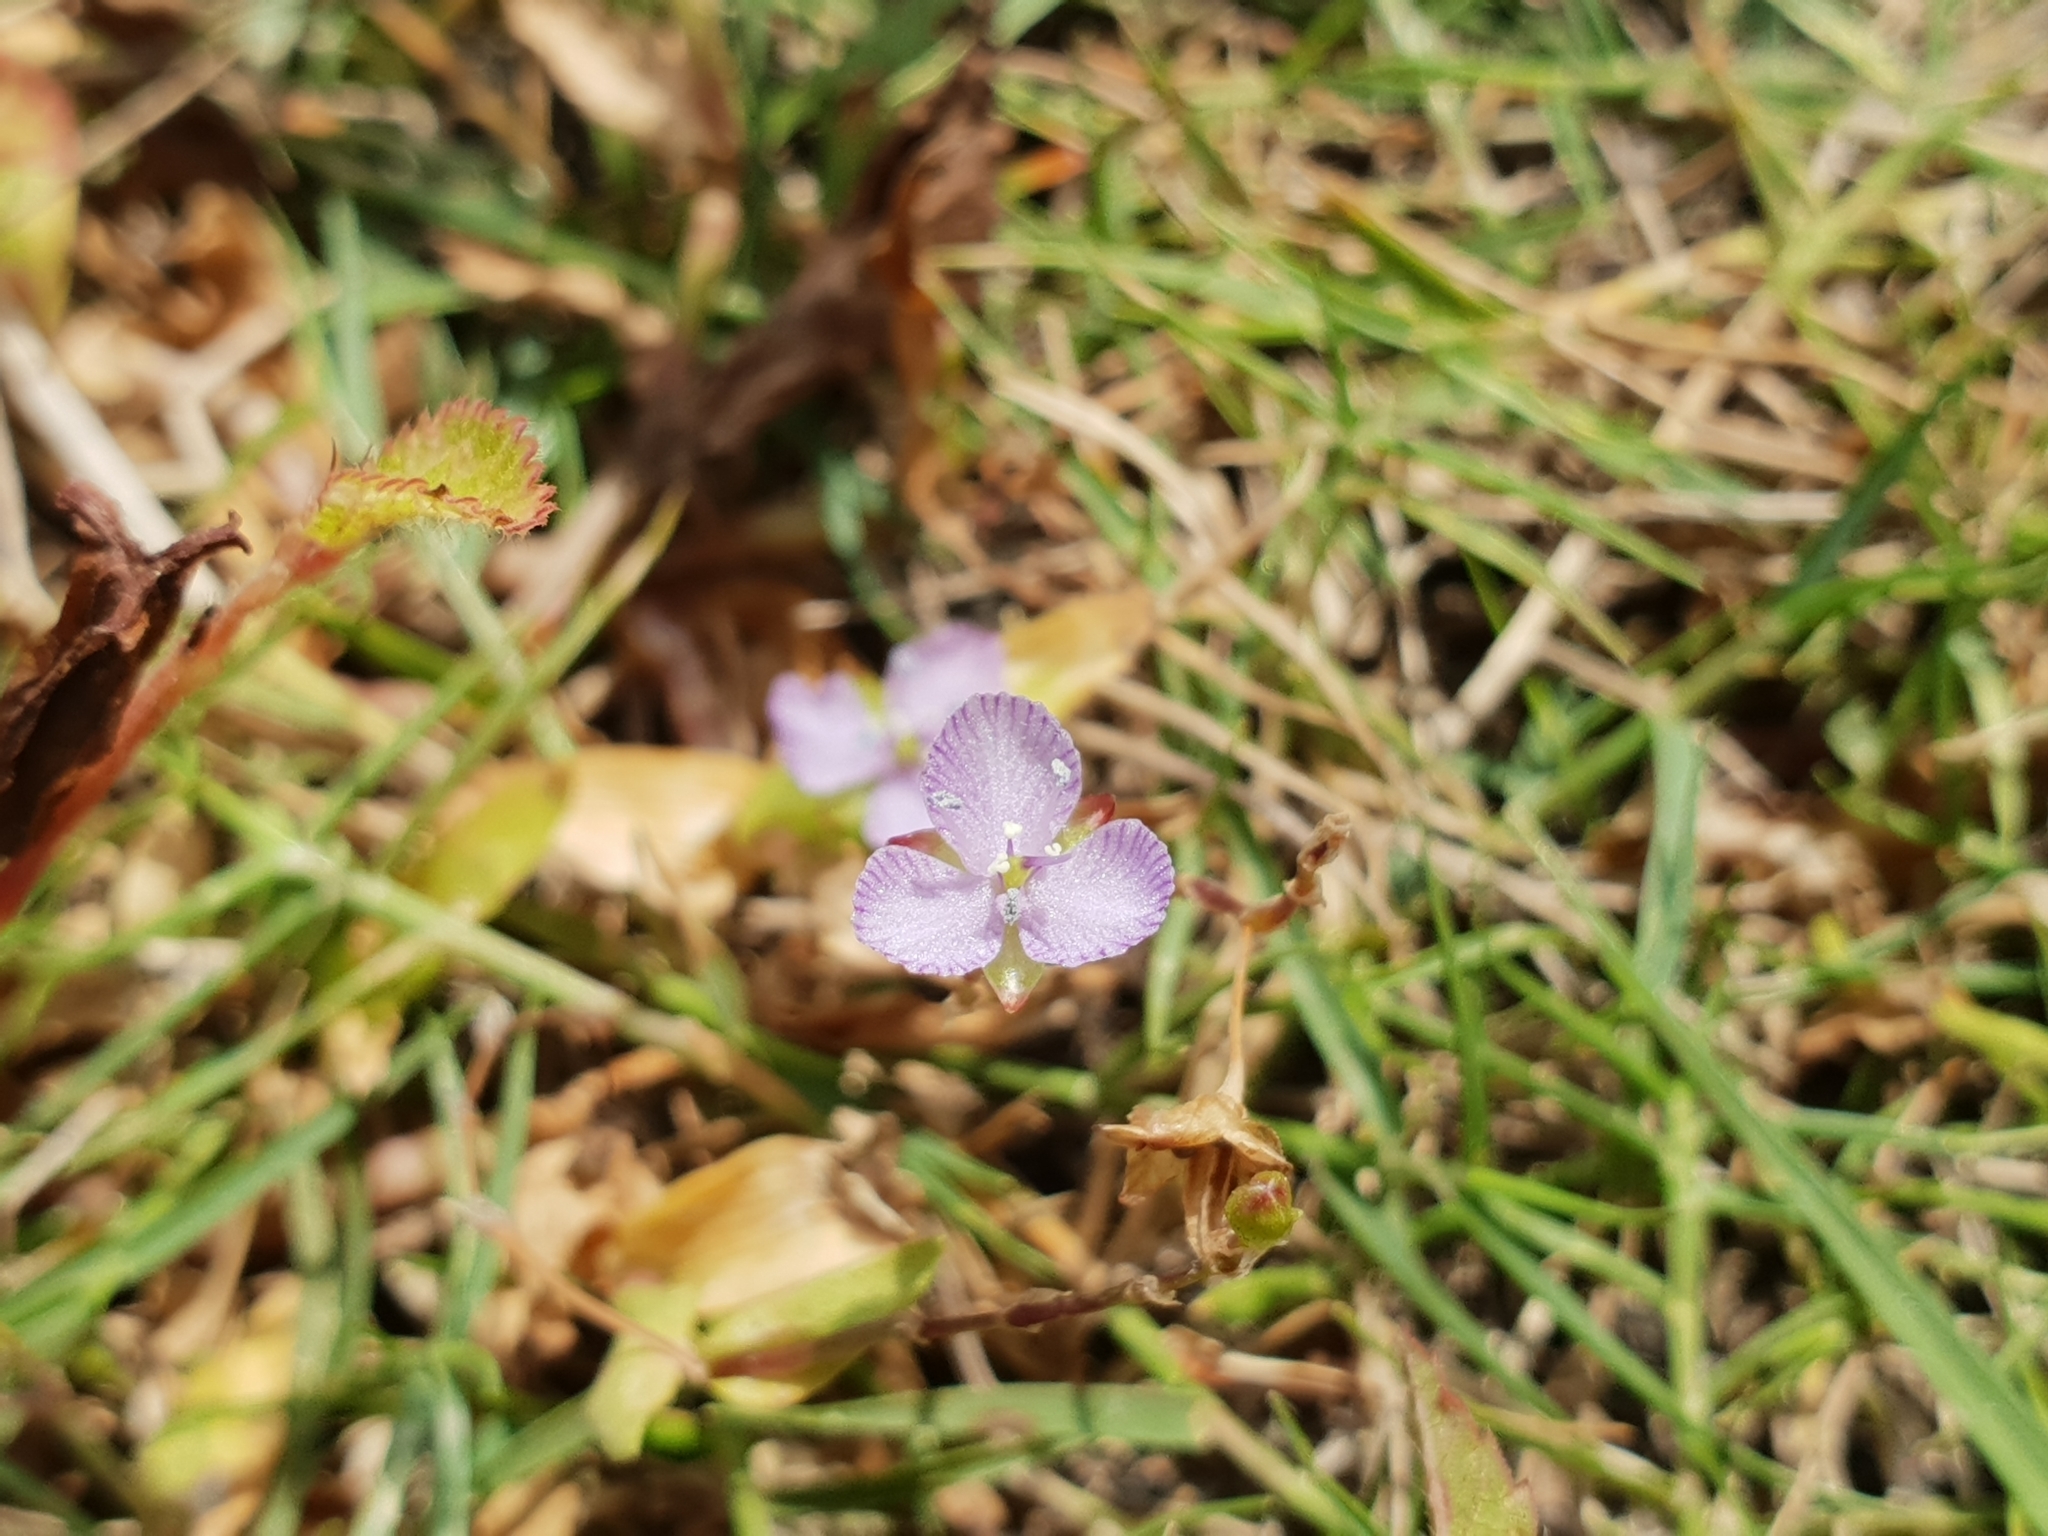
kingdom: Plantae
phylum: Tracheophyta
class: Liliopsida
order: Commelinales
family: Commelinaceae
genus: Murdannia
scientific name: Murdannia striatipetala
